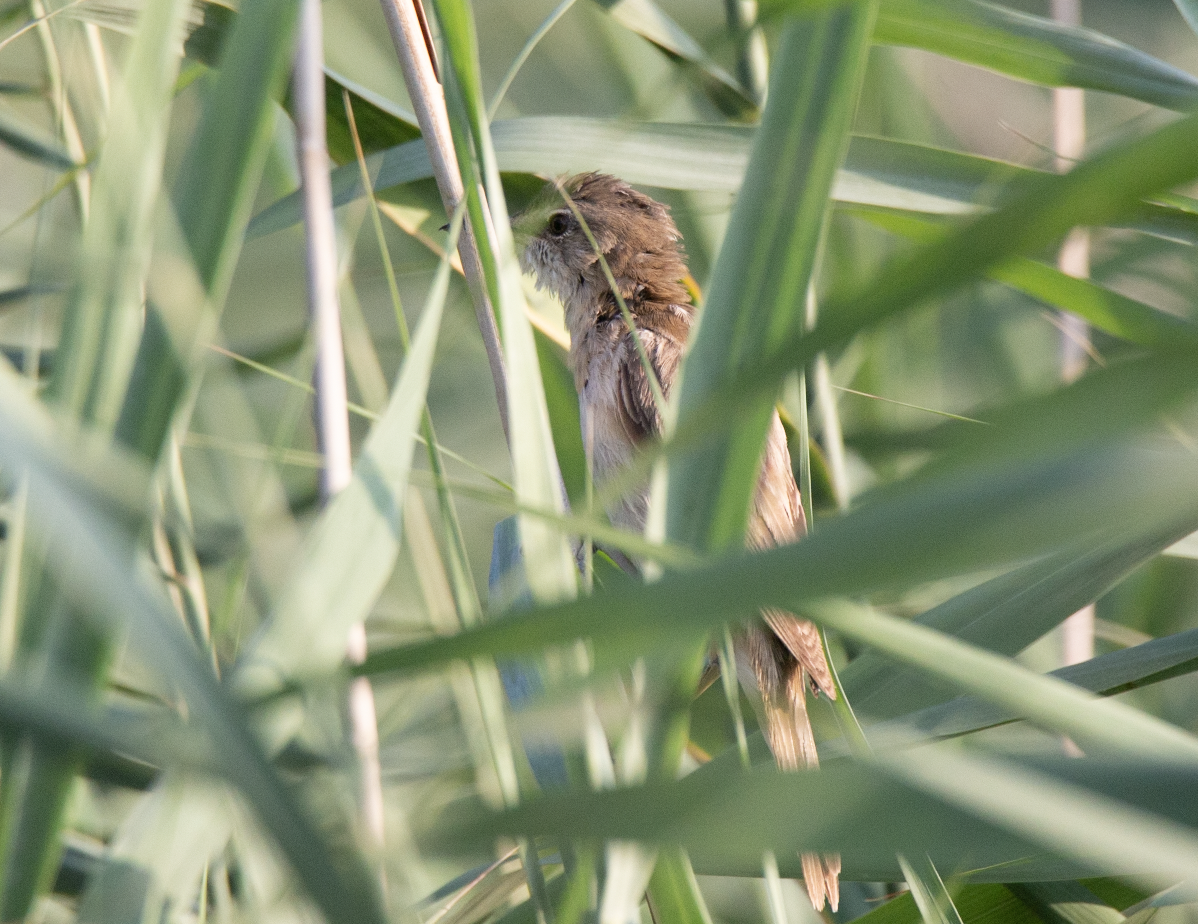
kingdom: Animalia
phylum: Chordata
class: Aves
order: Passeriformes
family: Acrocephalidae
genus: Acrocephalus
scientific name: Acrocephalus arundinaceus
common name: Great reed warbler
